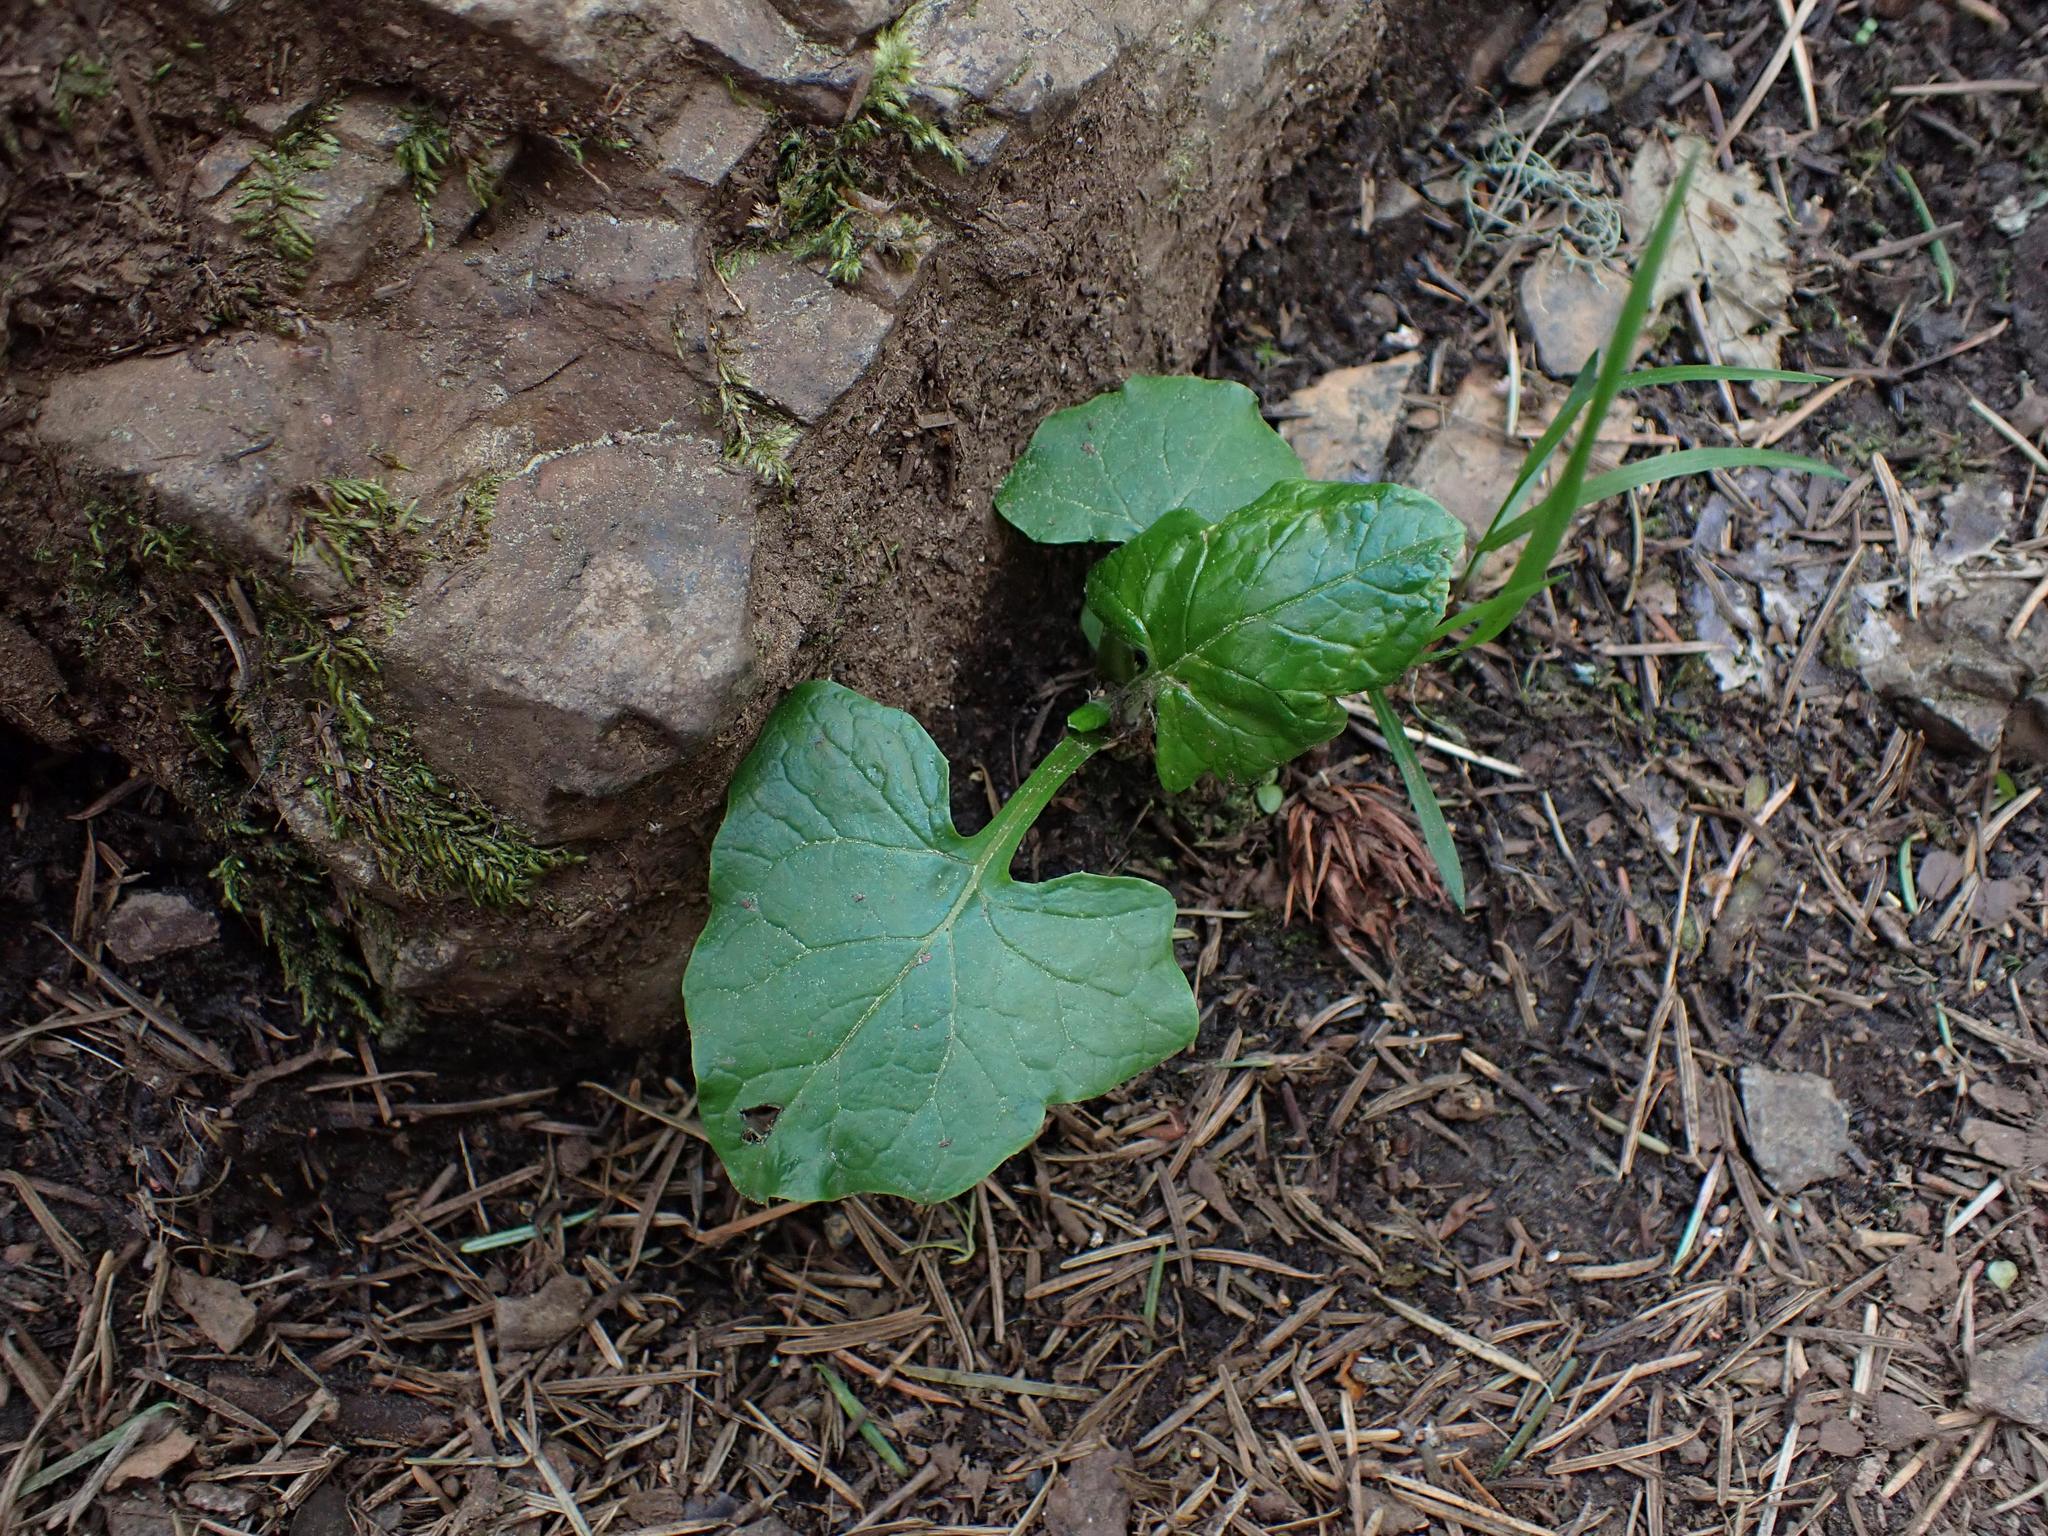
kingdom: Plantae
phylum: Tracheophyta
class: Magnoliopsida
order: Asterales
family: Asteraceae
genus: Adenocaulon
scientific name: Adenocaulon bicolor
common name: Trailplant
